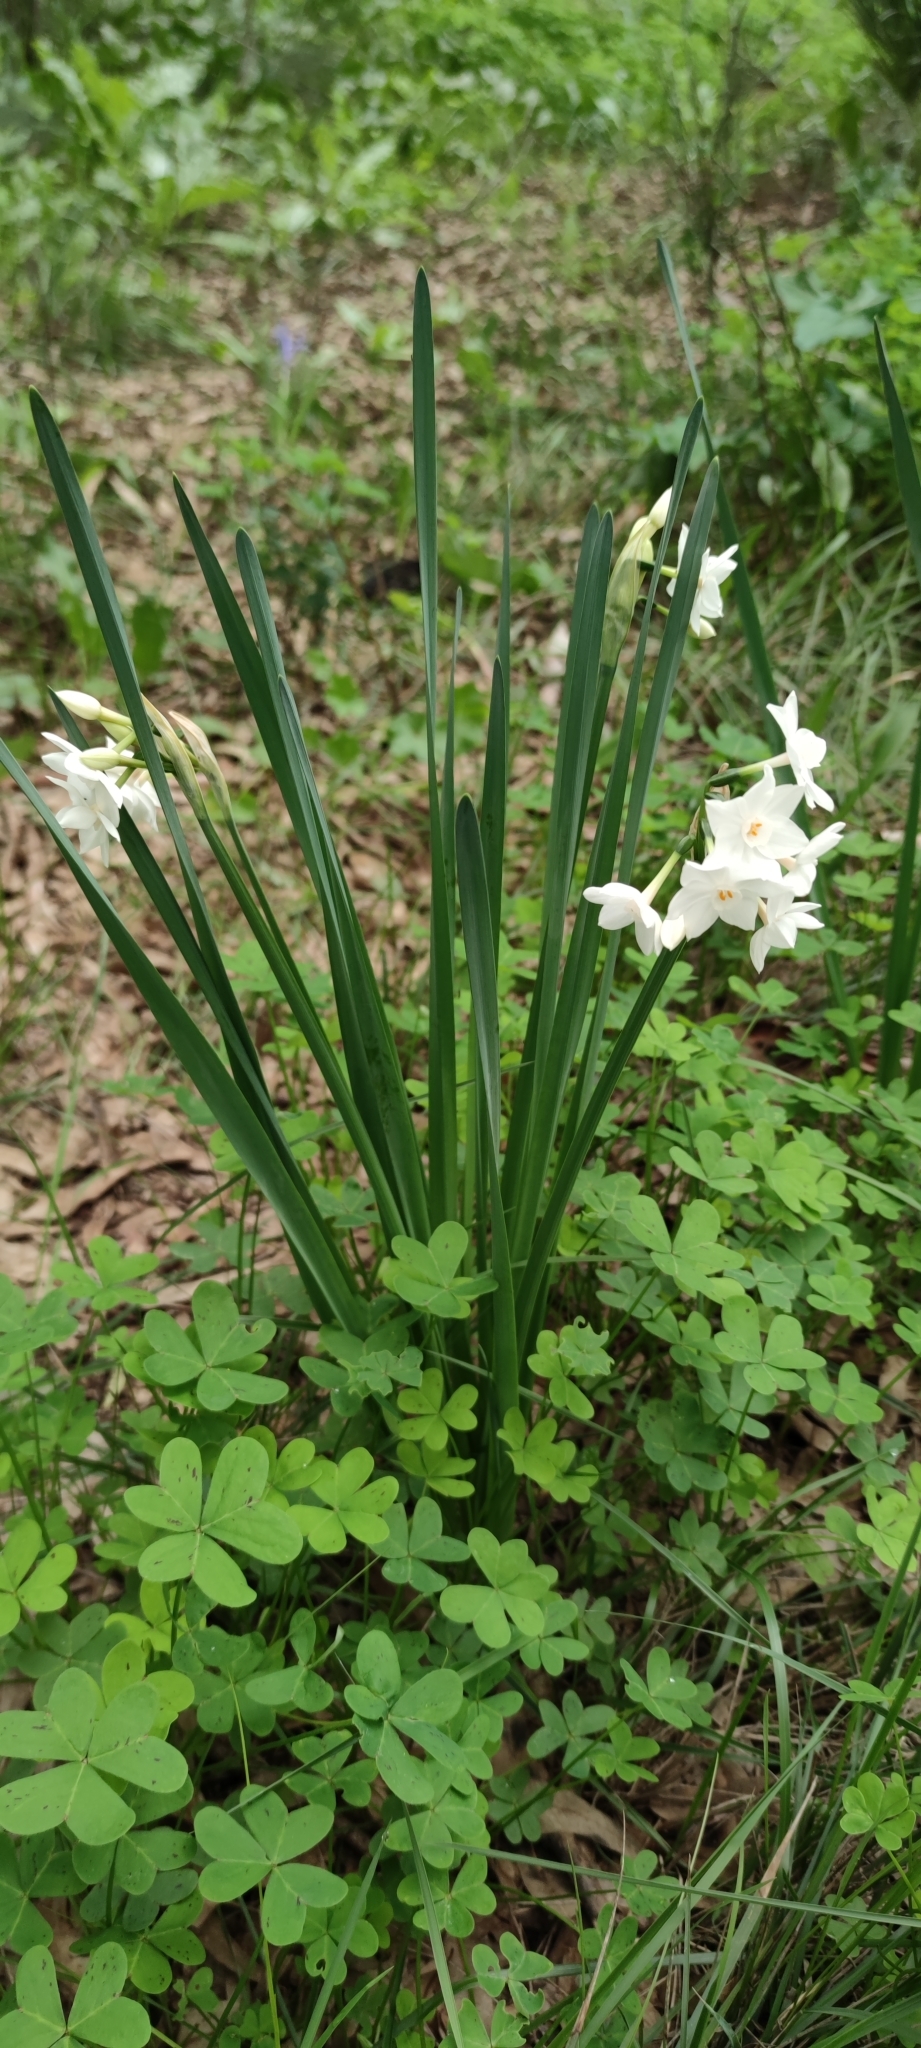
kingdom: Plantae
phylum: Tracheophyta
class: Liliopsida
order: Asparagales
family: Amaryllidaceae
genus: Narcissus
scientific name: Narcissus papyraceus
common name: Paper-white daffodil
